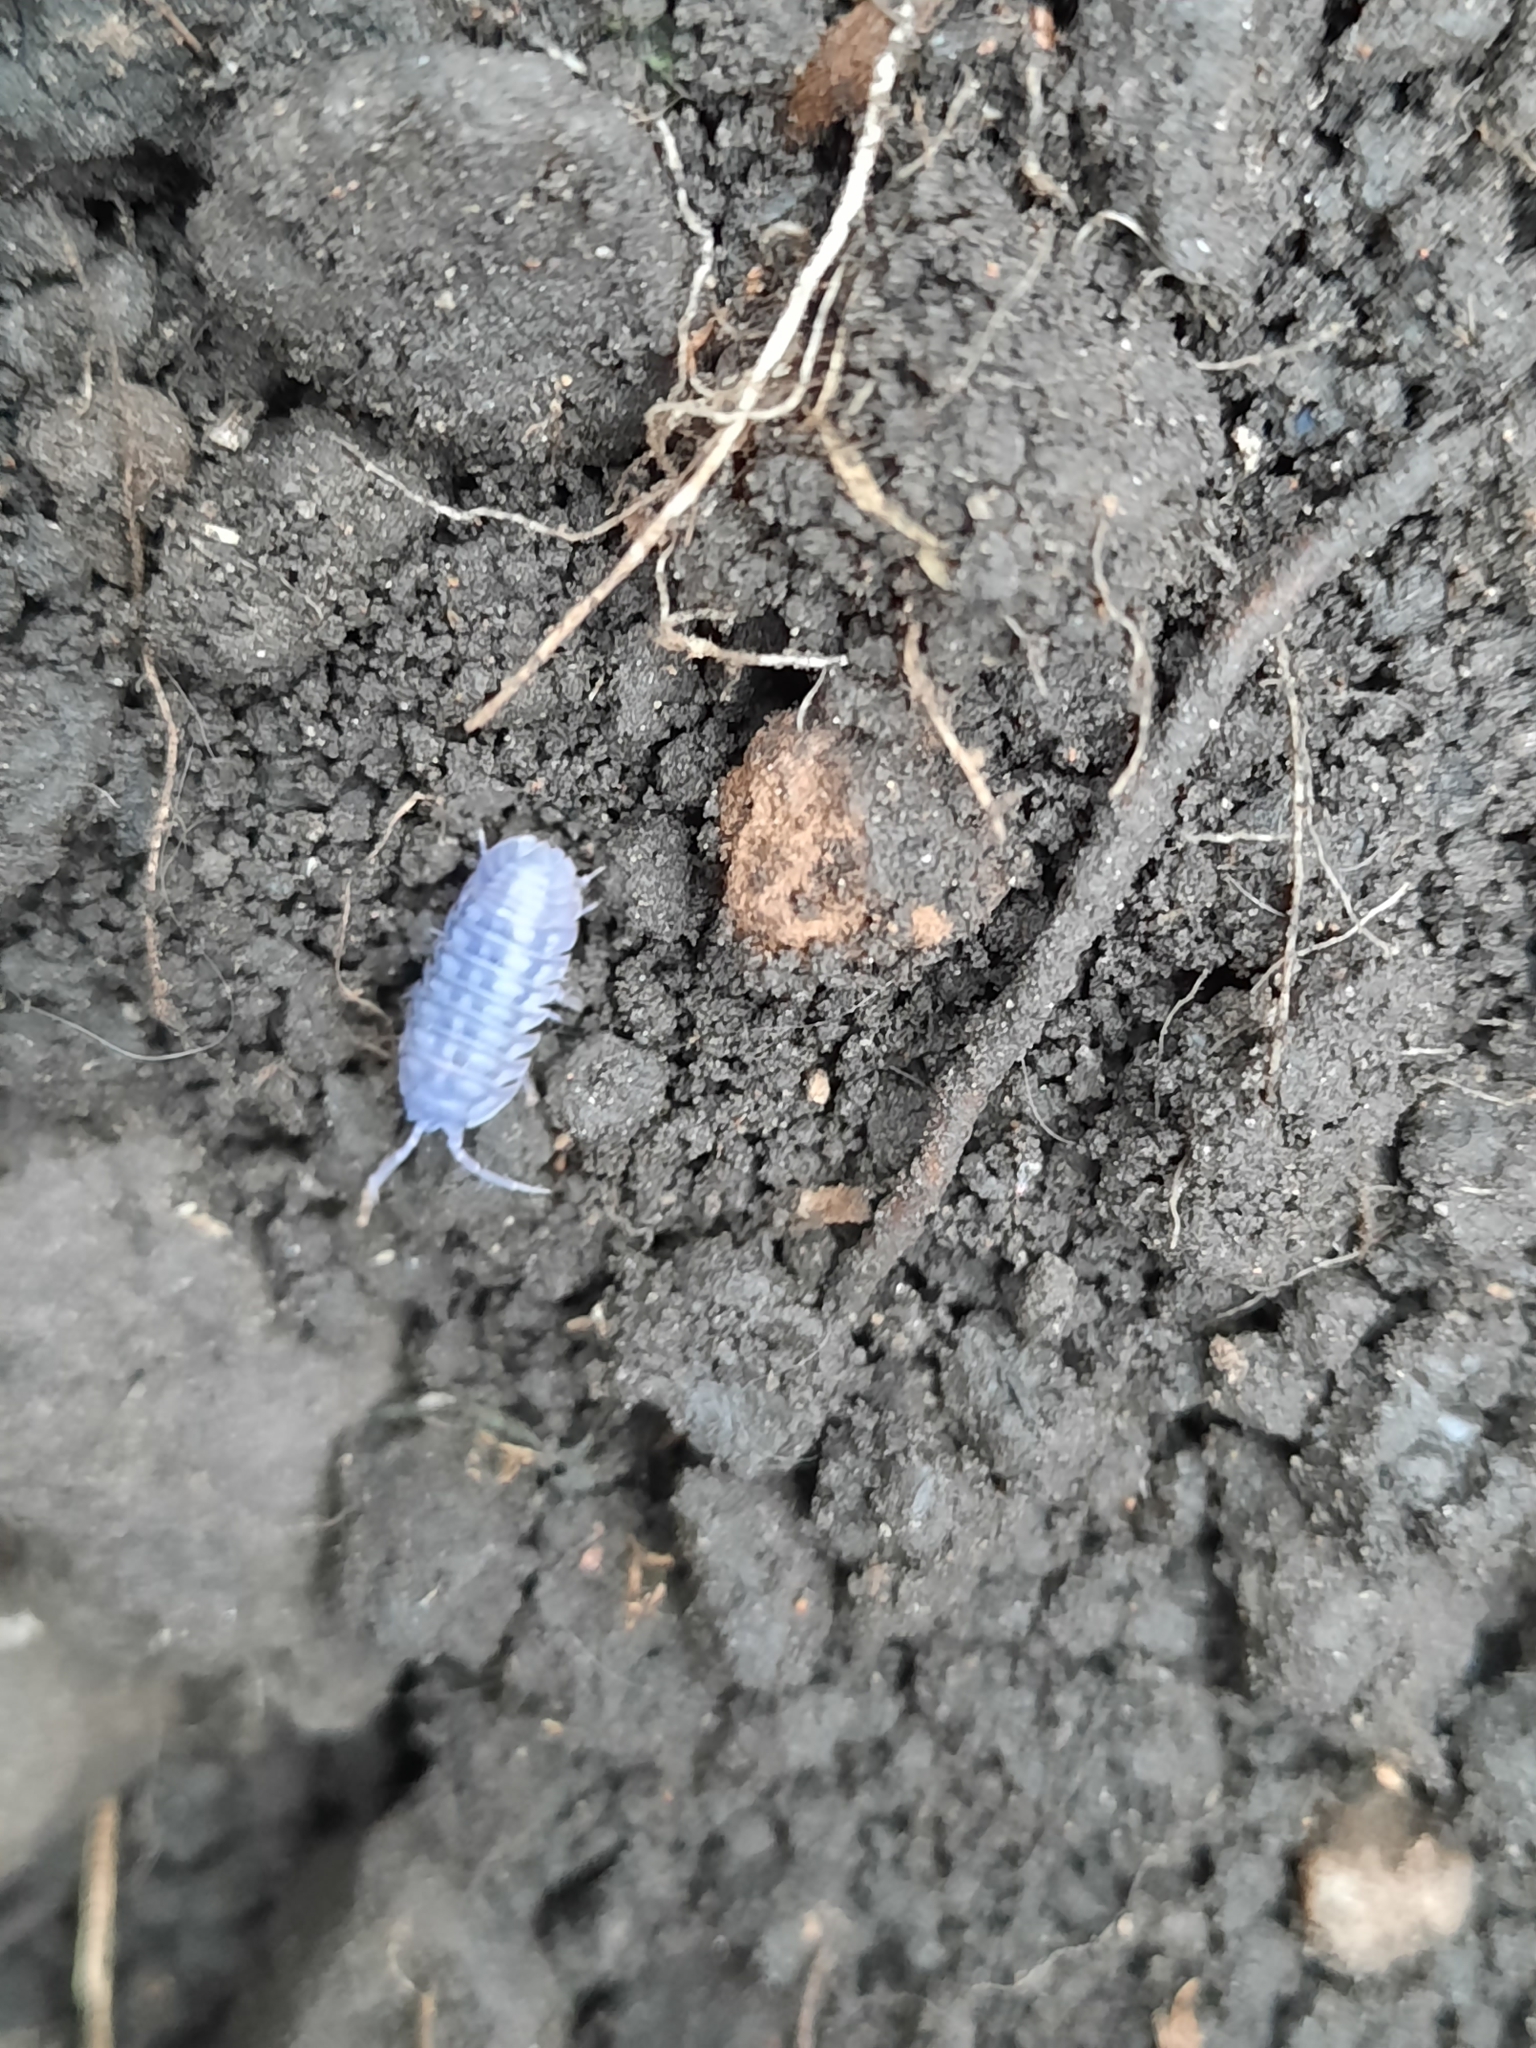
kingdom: Animalia
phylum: Arthropoda
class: Malacostraca
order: Isopoda
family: Armadillidiidae
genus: Armadillidium
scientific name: Armadillidium nasatum
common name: Isopod
